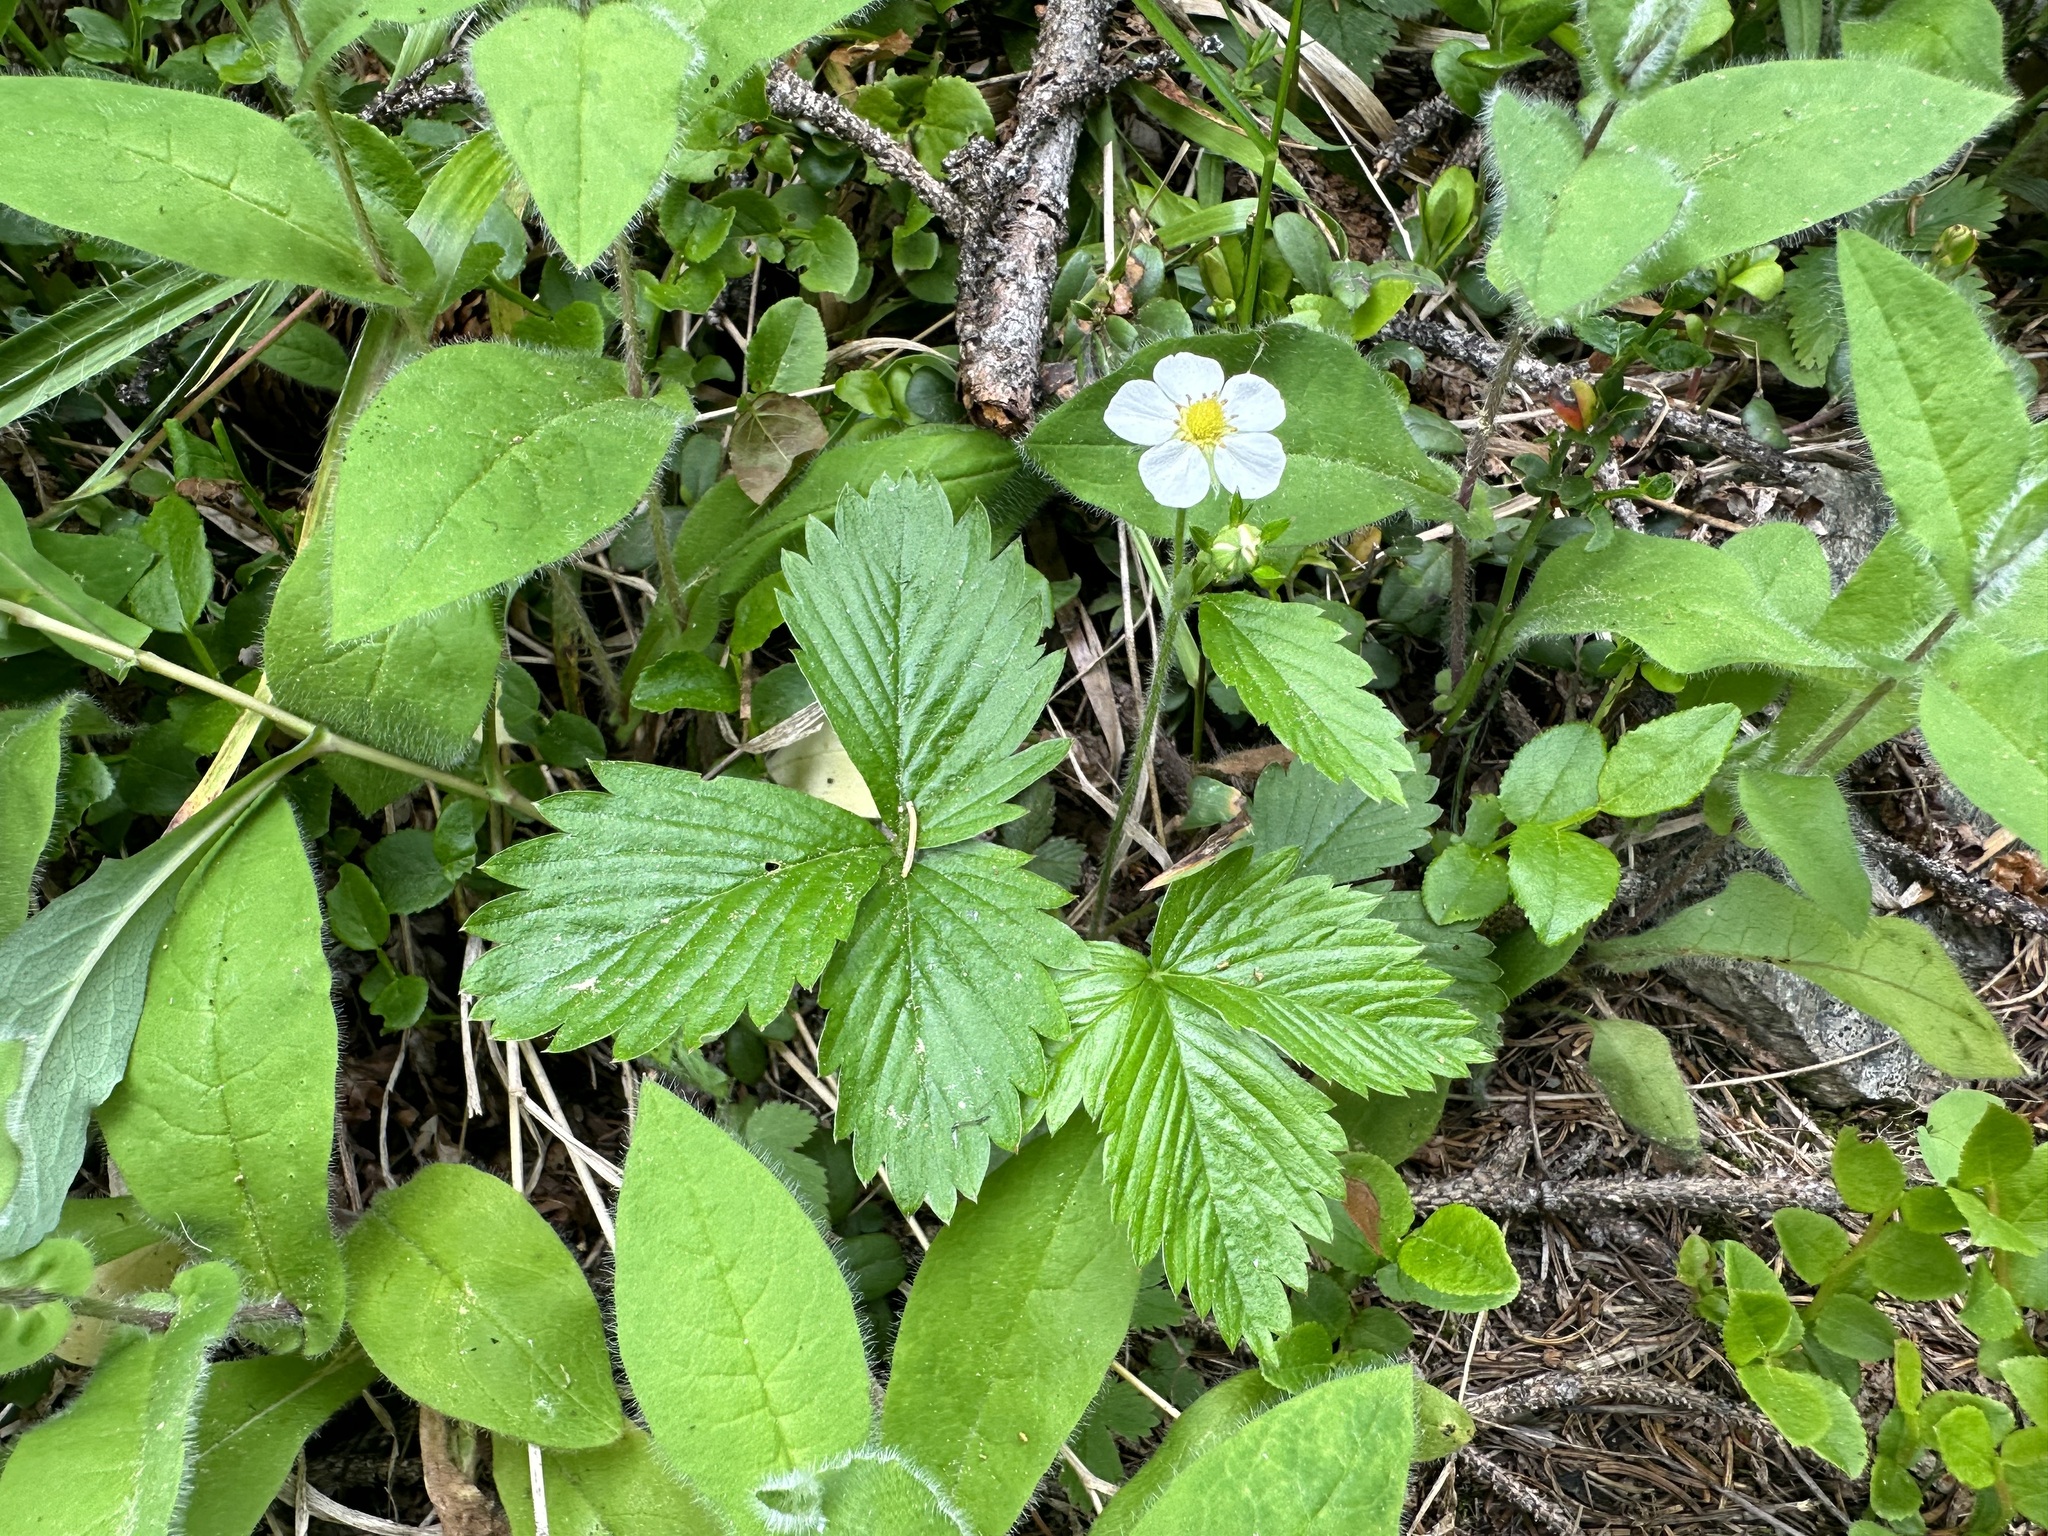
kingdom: Plantae
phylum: Tracheophyta
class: Magnoliopsida
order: Rosales
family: Rosaceae
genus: Fragaria
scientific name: Fragaria vesca
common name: Wild strawberry
